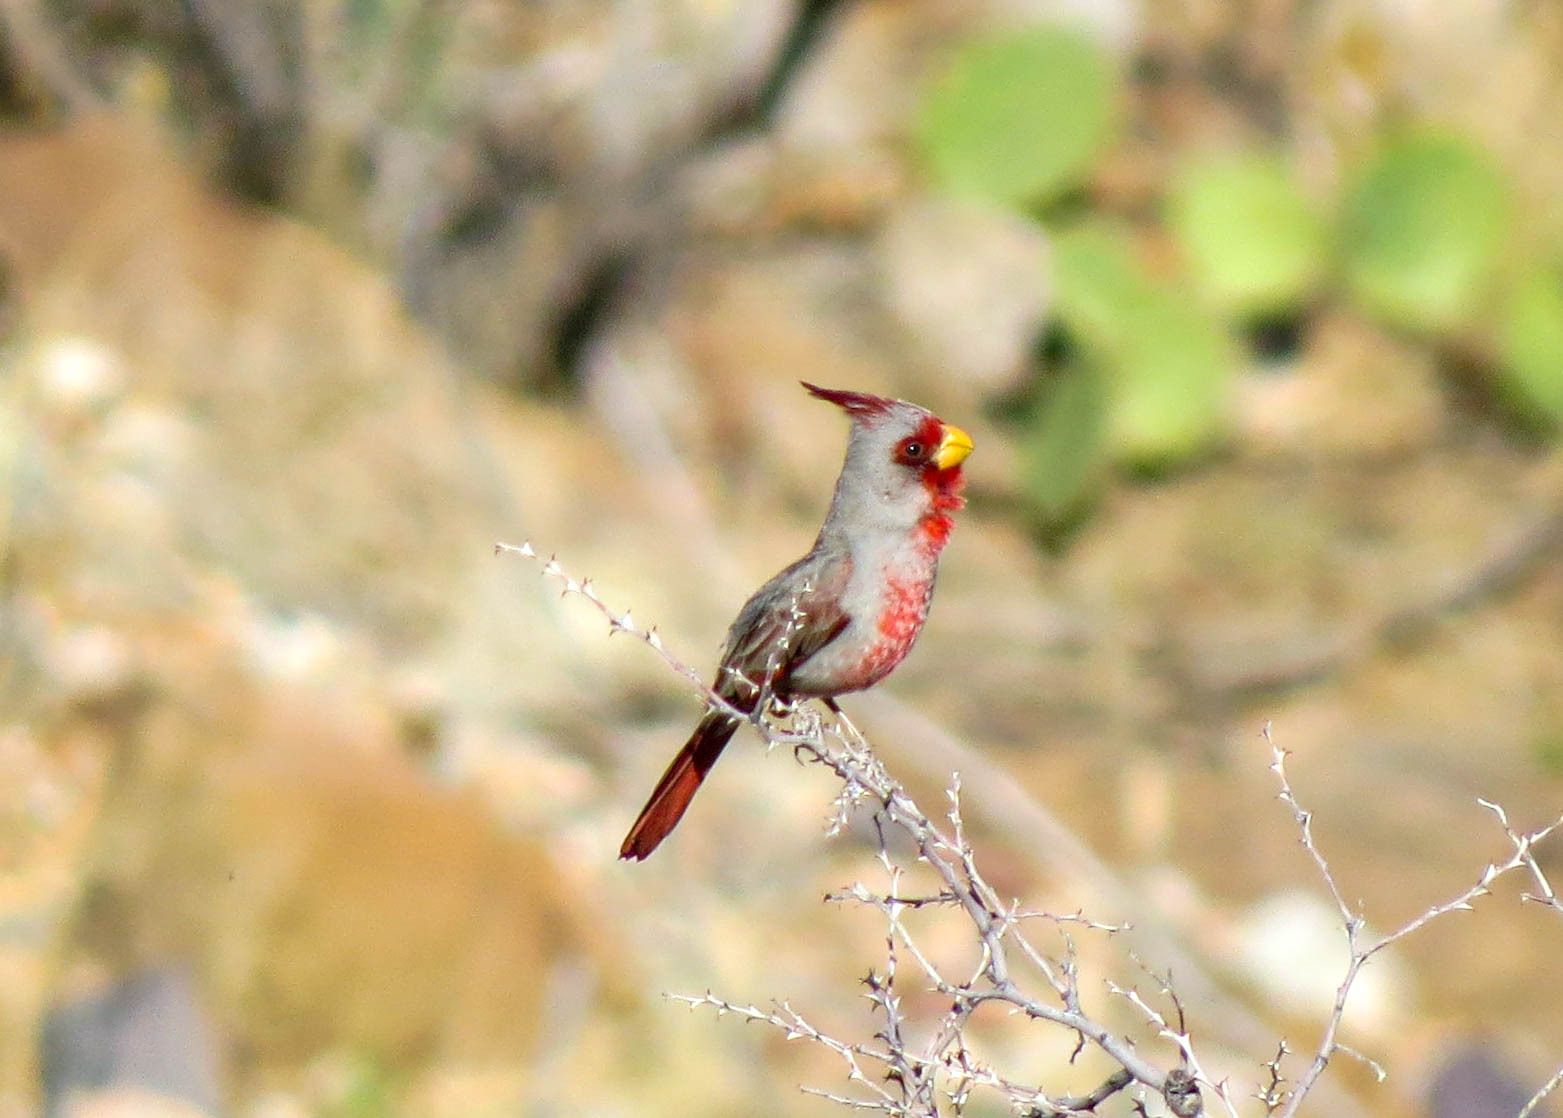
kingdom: Animalia
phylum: Chordata
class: Aves
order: Passeriformes
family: Cardinalidae
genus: Cardinalis
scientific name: Cardinalis sinuatus
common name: Pyrrhuloxia
